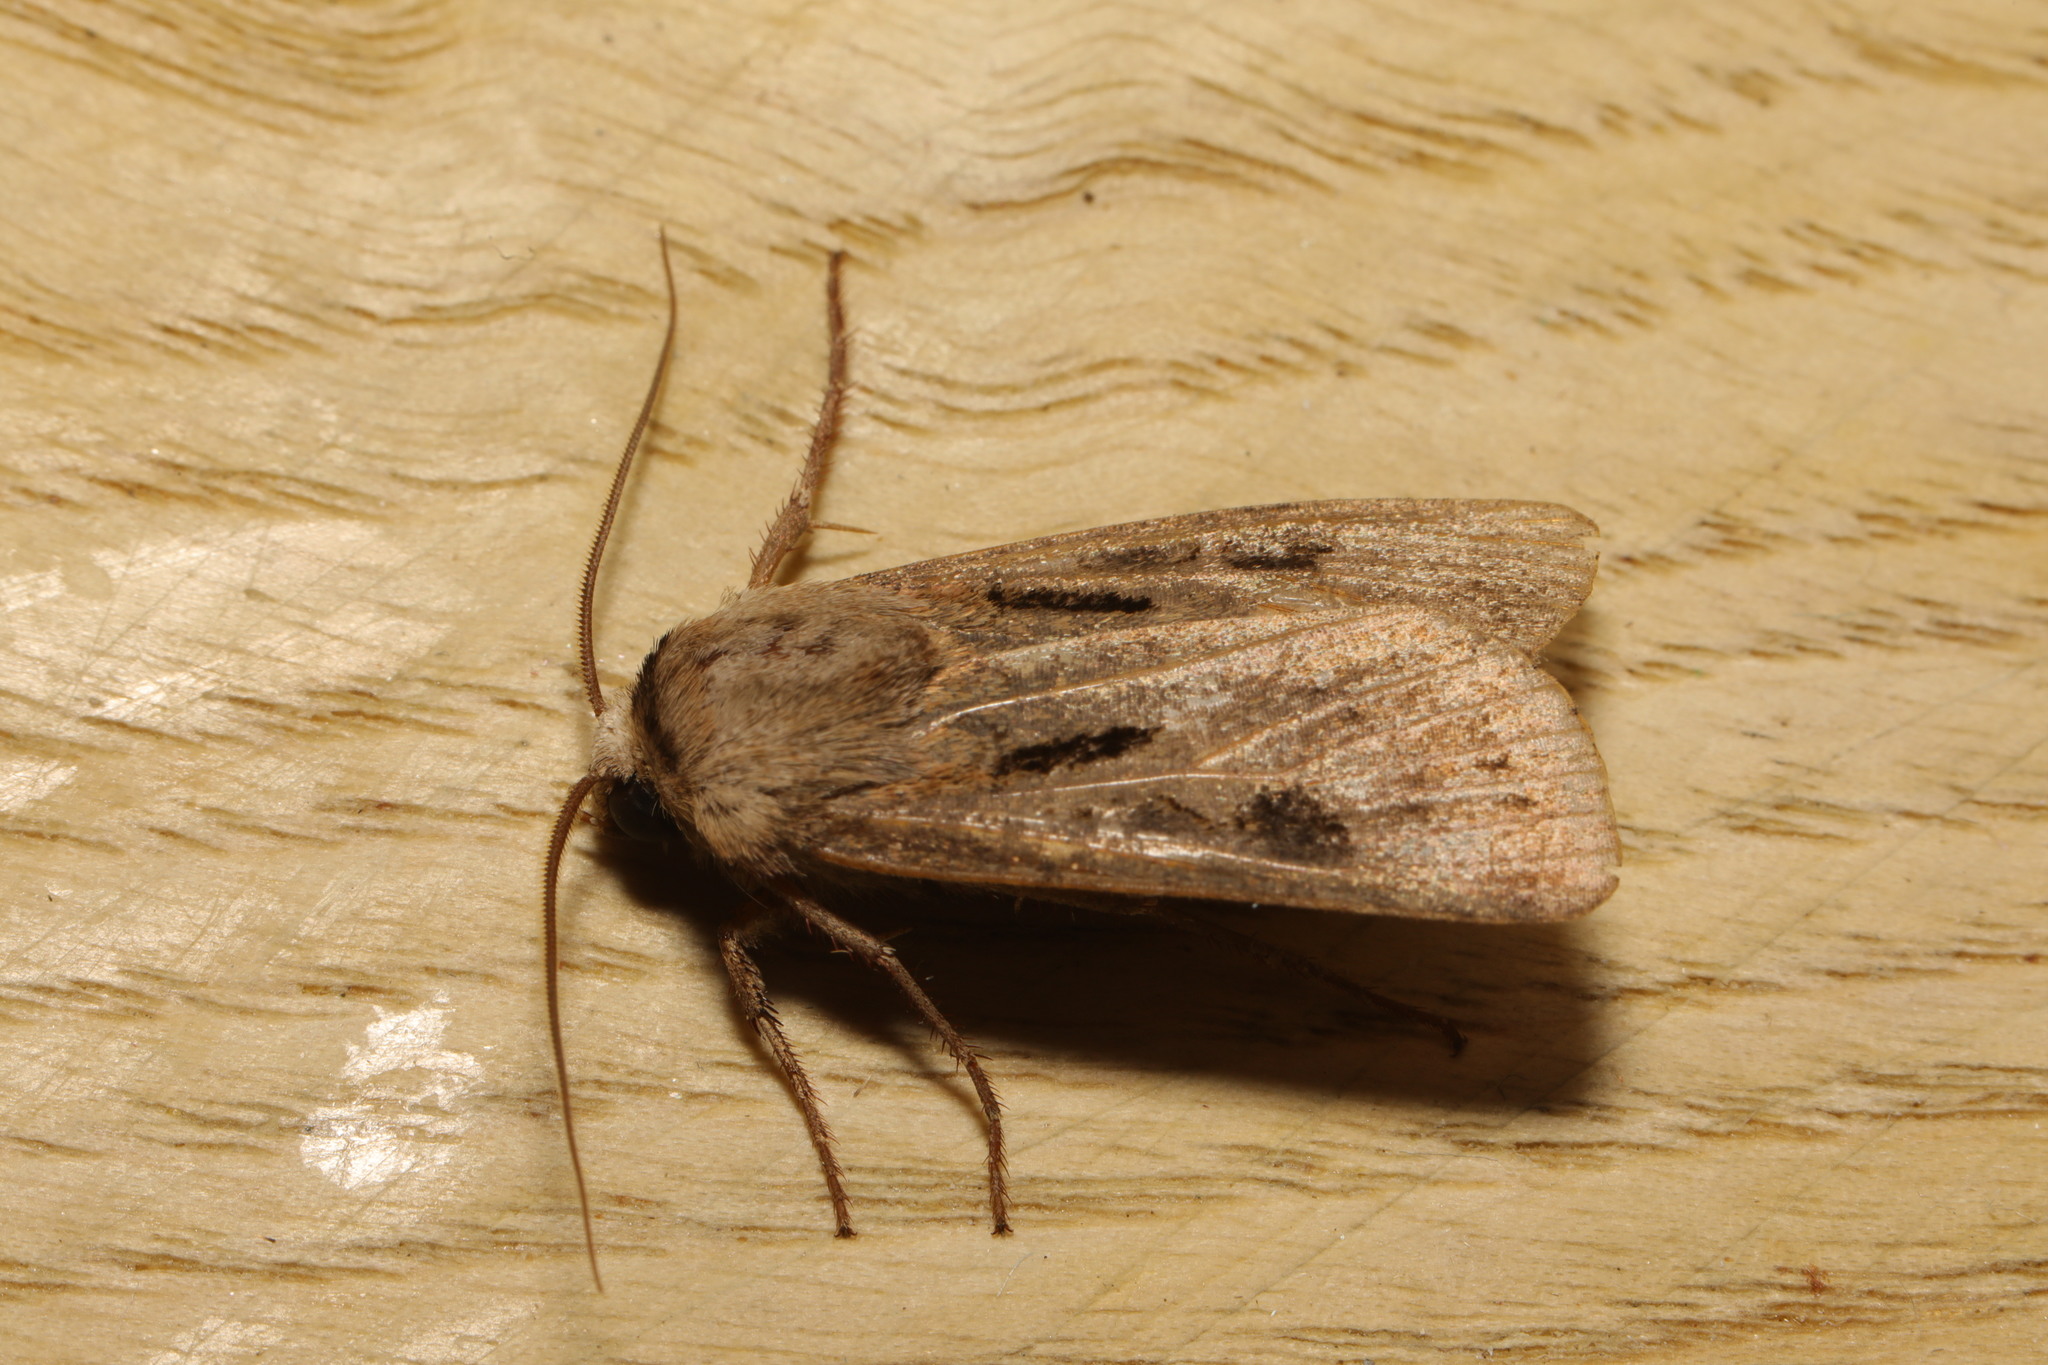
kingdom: Animalia
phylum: Arthropoda
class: Insecta
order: Lepidoptera
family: Noctuidae
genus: Agrotis
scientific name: Agrotis exclamationis
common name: Heart and dart
